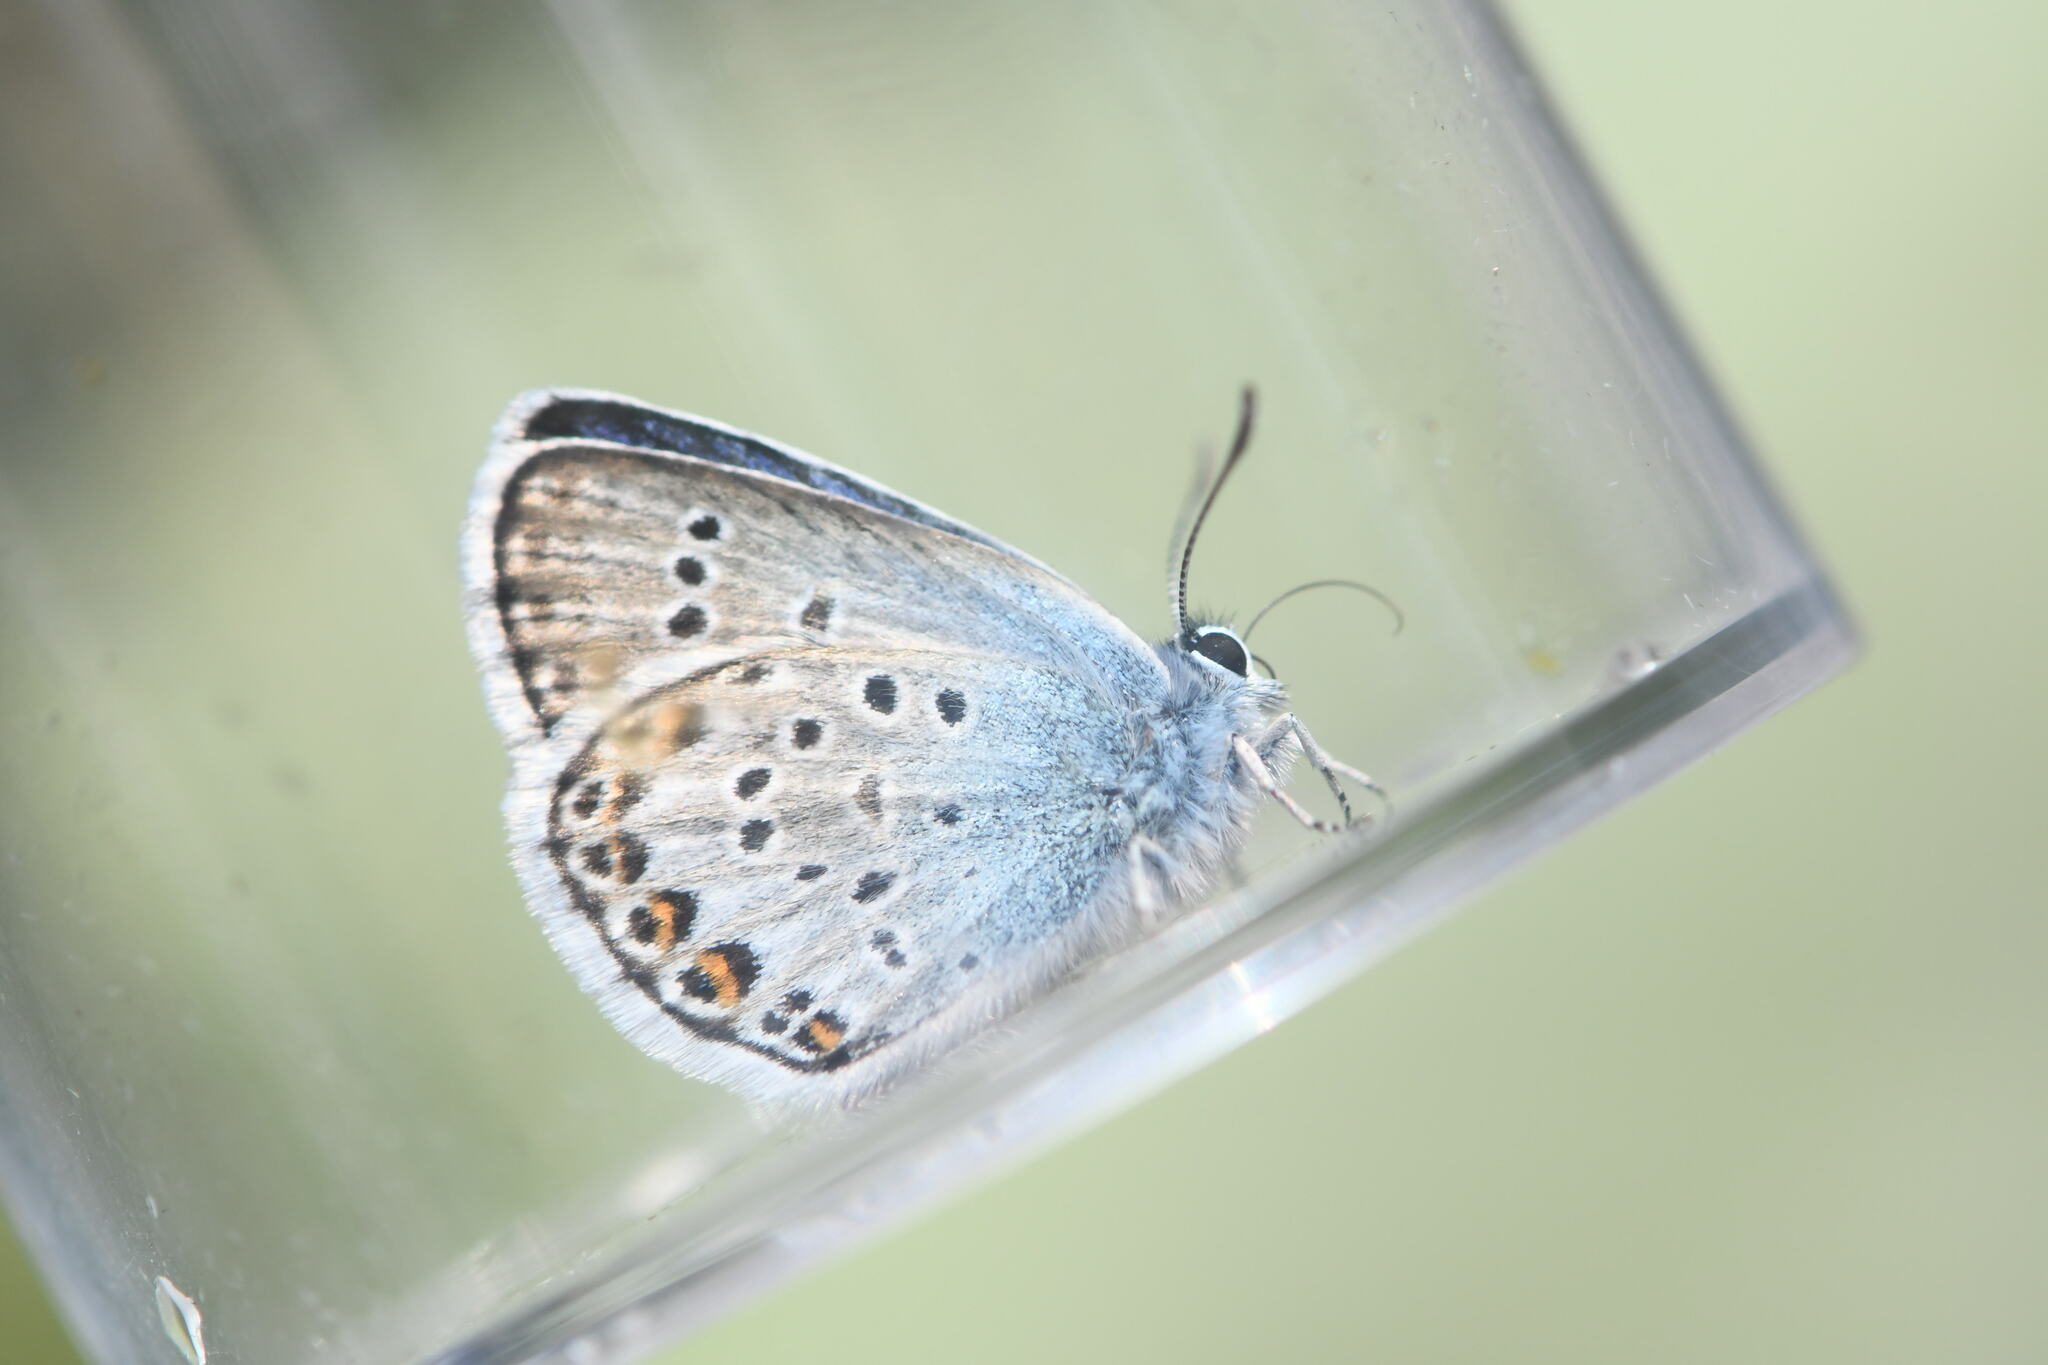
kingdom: Animalia
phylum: Arthropoda
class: Insecta
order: Lepidoptera
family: Lycaenidae
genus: Plebejus
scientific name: Plebejus argus
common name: Silver-studded blue
